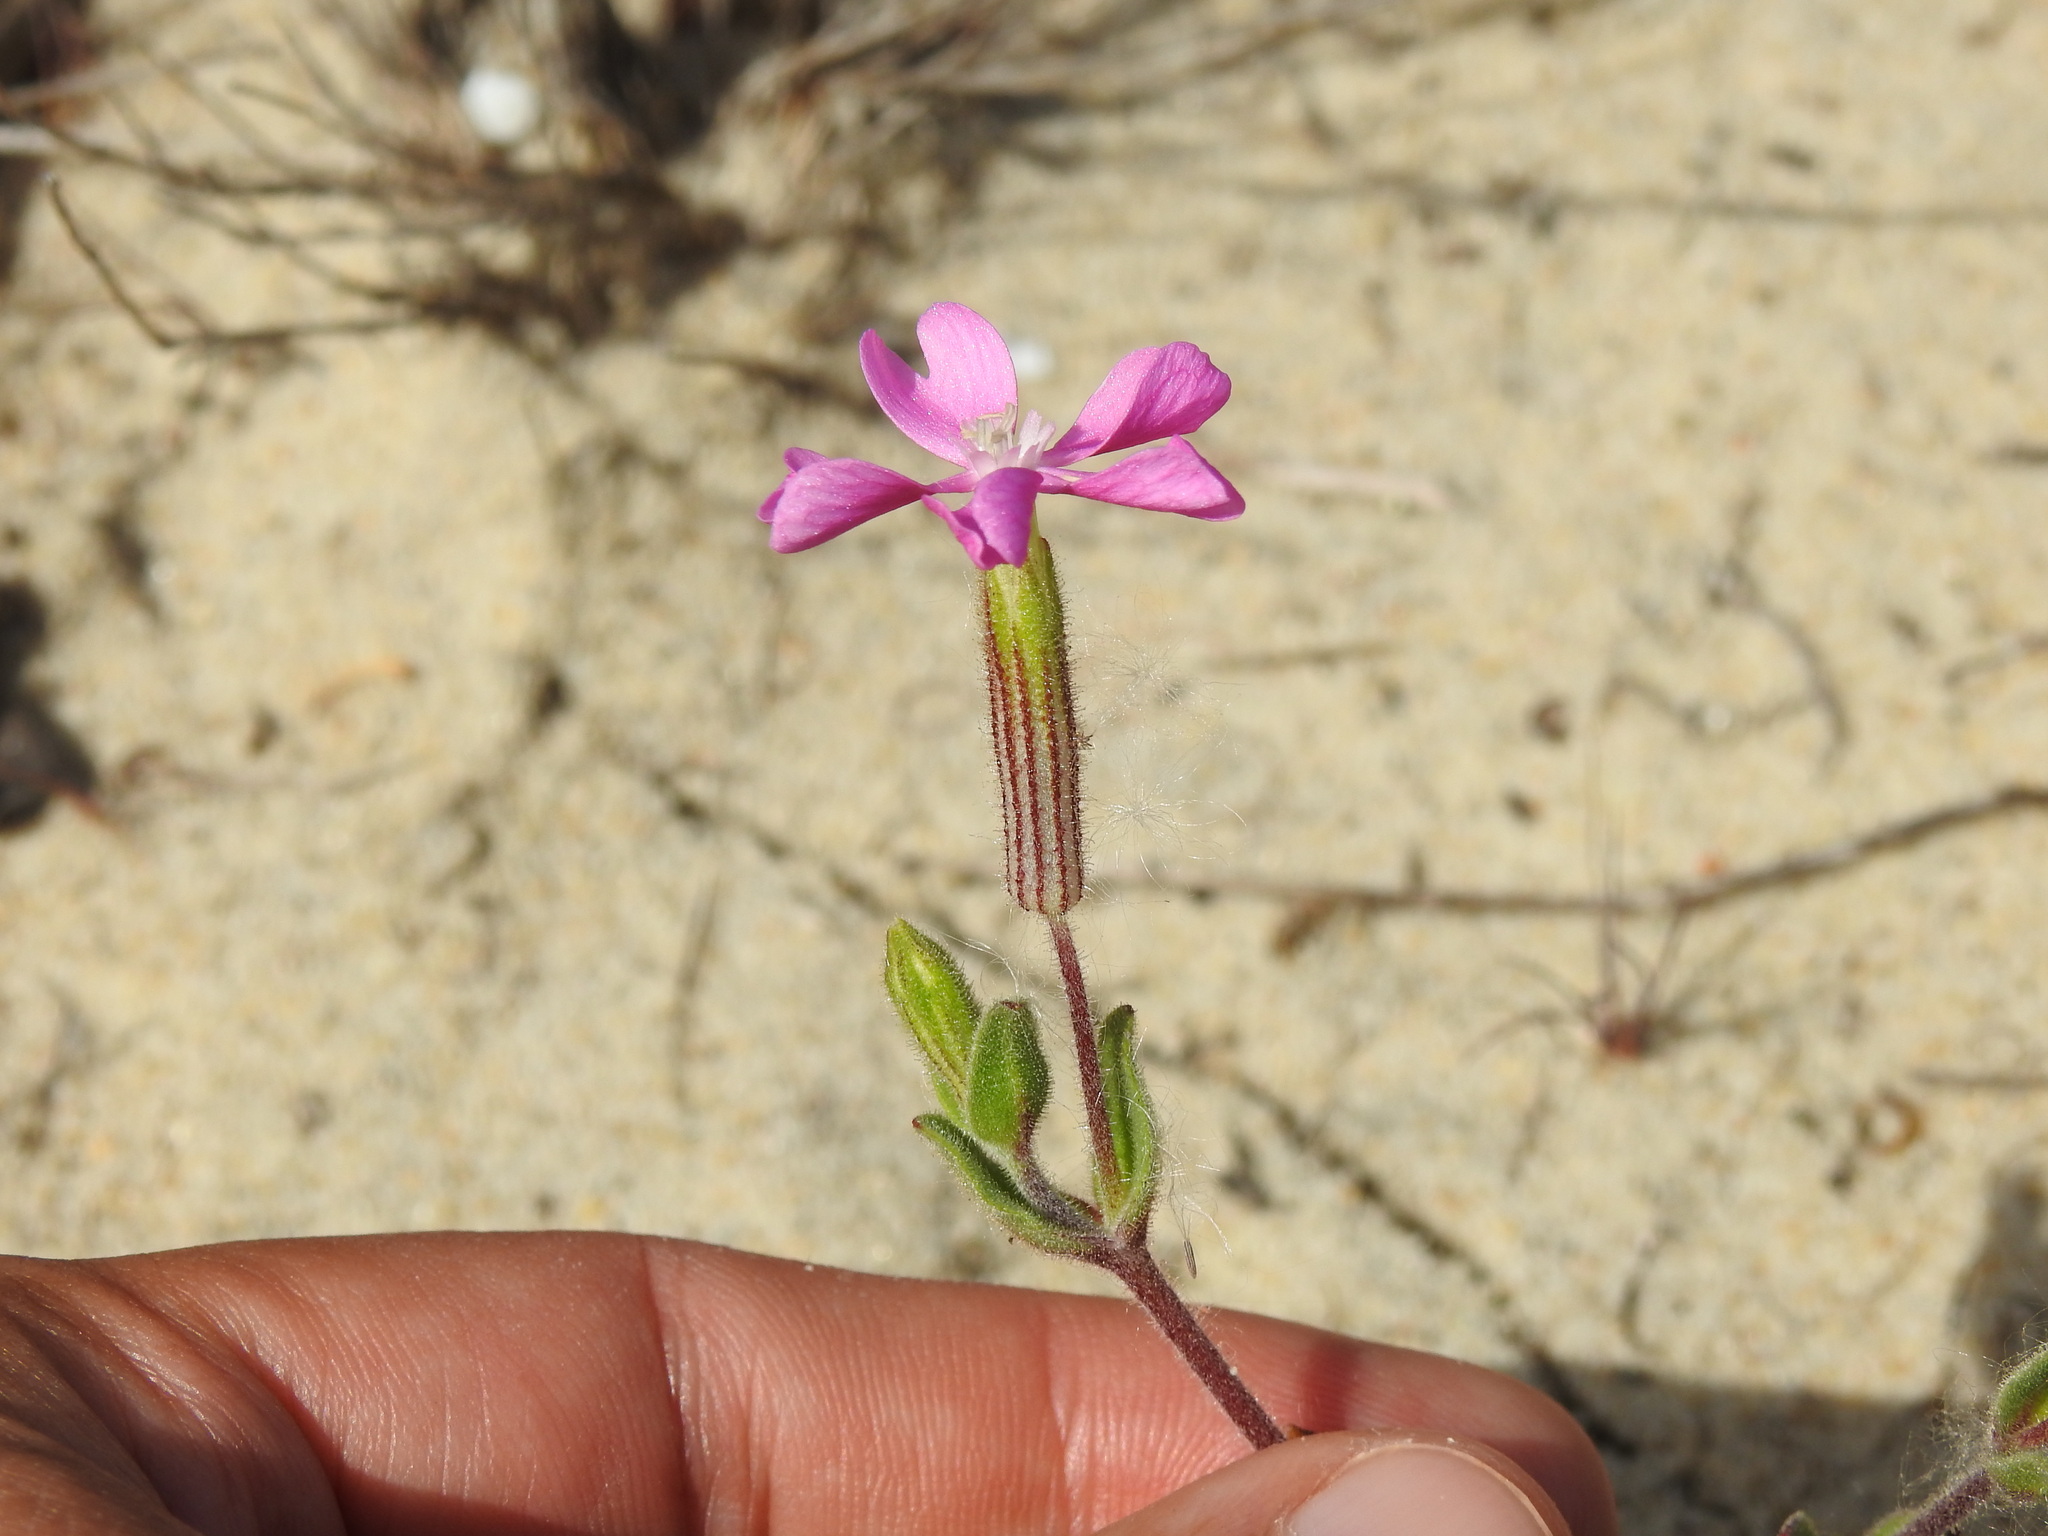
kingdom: Plantae
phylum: Tracheophyta
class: Magnoliopsida
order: Caryophyllales
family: Caryophyllaceae
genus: Silene
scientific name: Silene littorea
